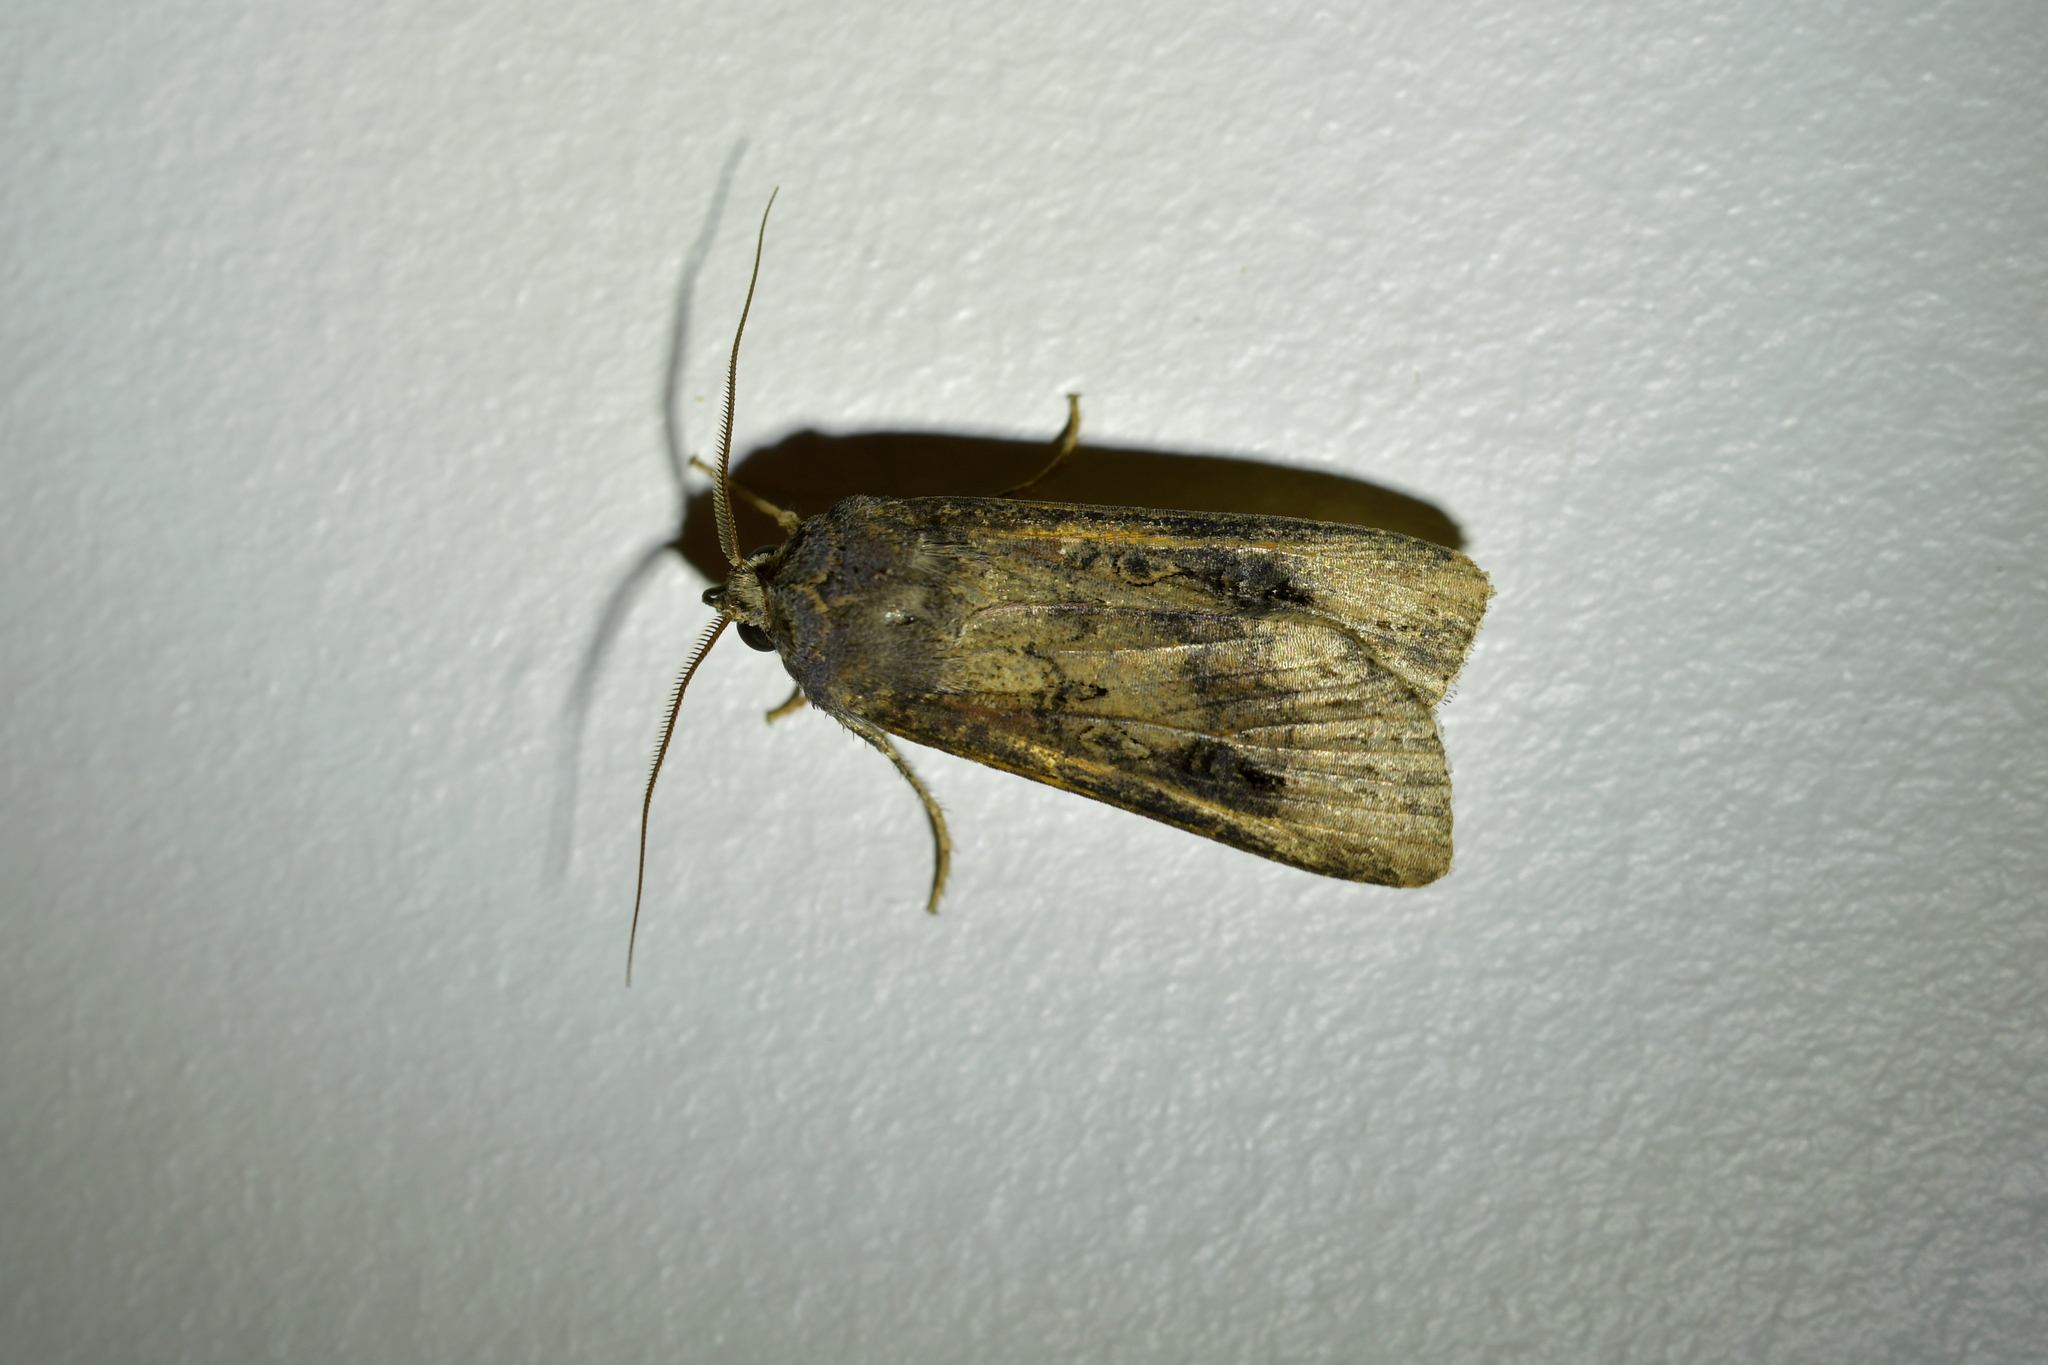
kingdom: Animalia
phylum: Arthropoda
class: Insecta
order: Lepidoptera
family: Noctuidae
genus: Agrotis
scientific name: Agrotis ipsilon
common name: Dark sword-grass
